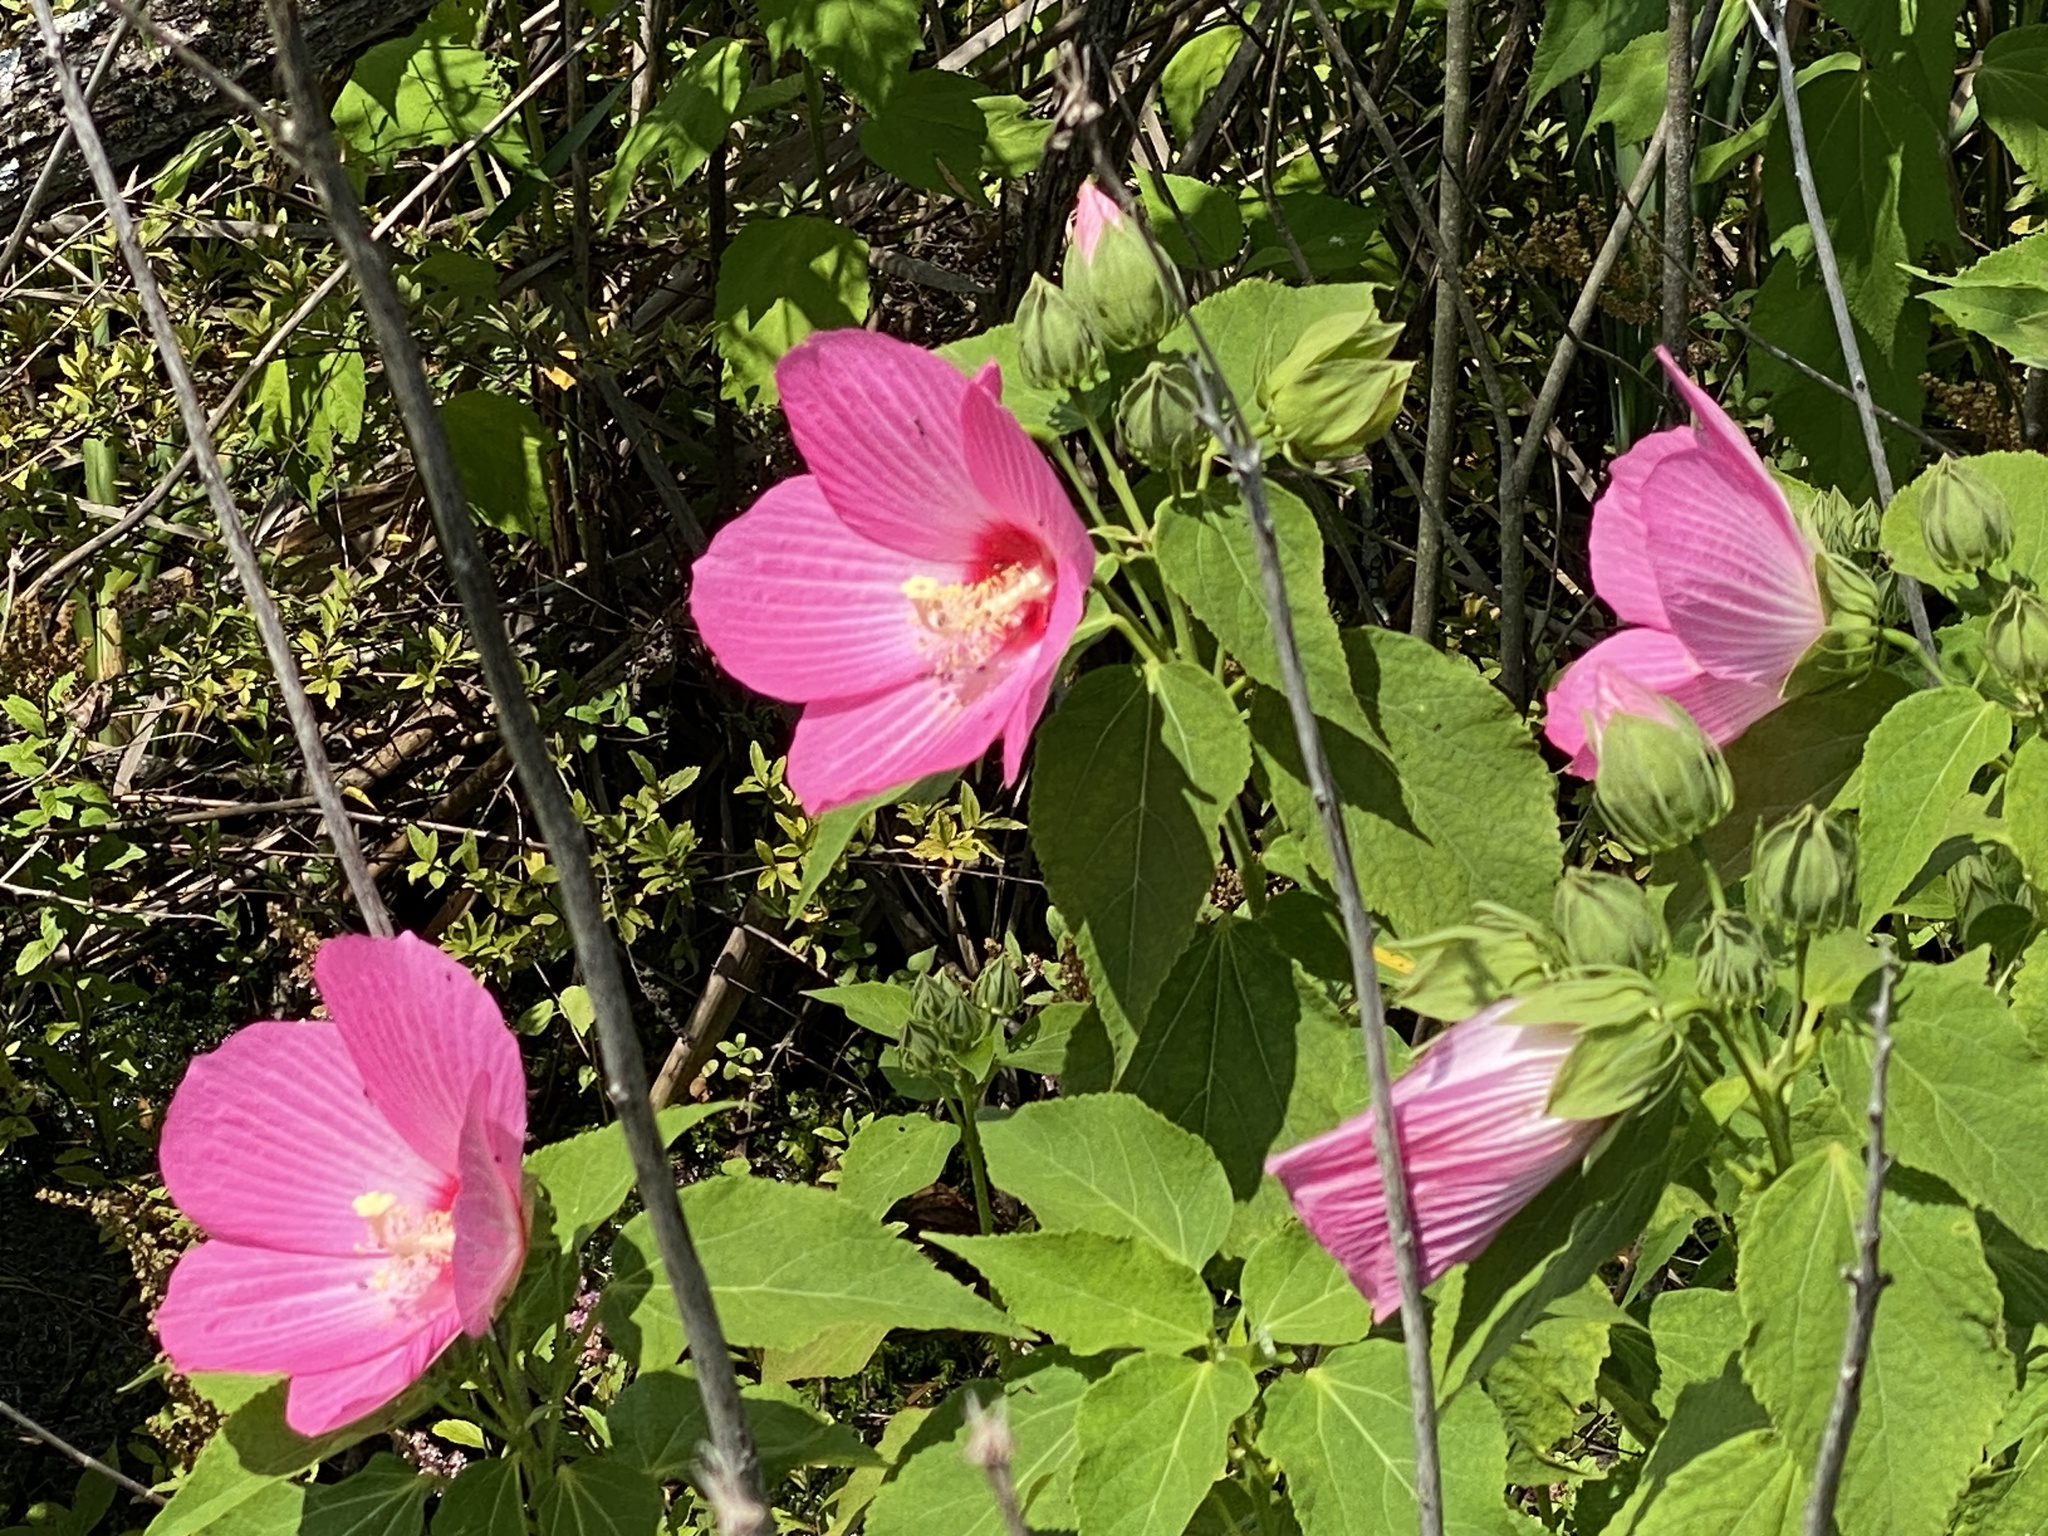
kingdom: Plantae
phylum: Tracheophyta
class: Magnoliopsida
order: Malvales
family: Malvaceae
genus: Hibiscus
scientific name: Hibiscus moscheutos
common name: Common rose-mallow
